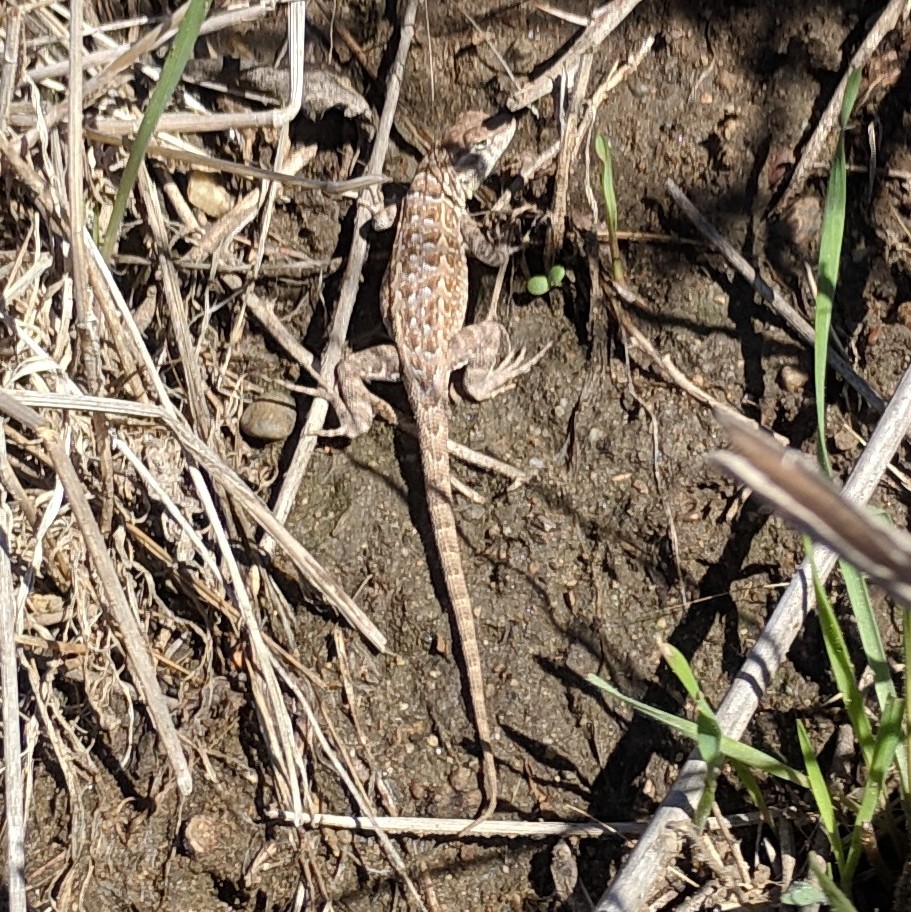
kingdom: Animalia
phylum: Chordata
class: Squamata
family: Phrynosomatidae
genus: Uta
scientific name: Uta stansburiana
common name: Side-blotched lizard
